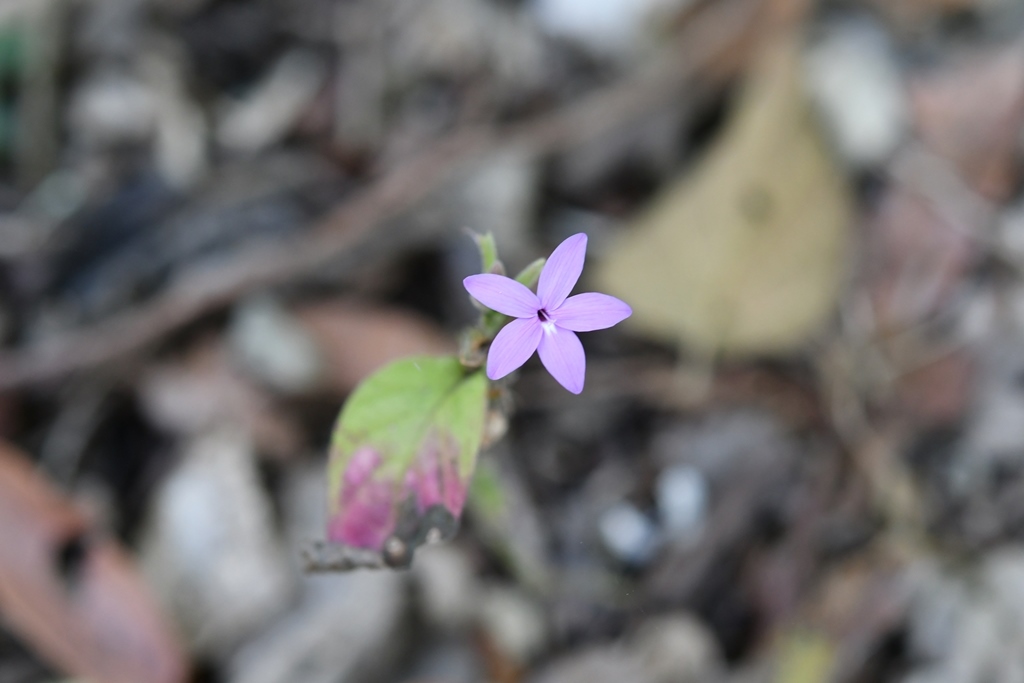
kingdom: Plantae
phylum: Tracheophyta
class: Magnoliopsida
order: Lamiales
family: Acanthaceae
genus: Pseuderanthemum
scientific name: Pseuderanthemum praecox
